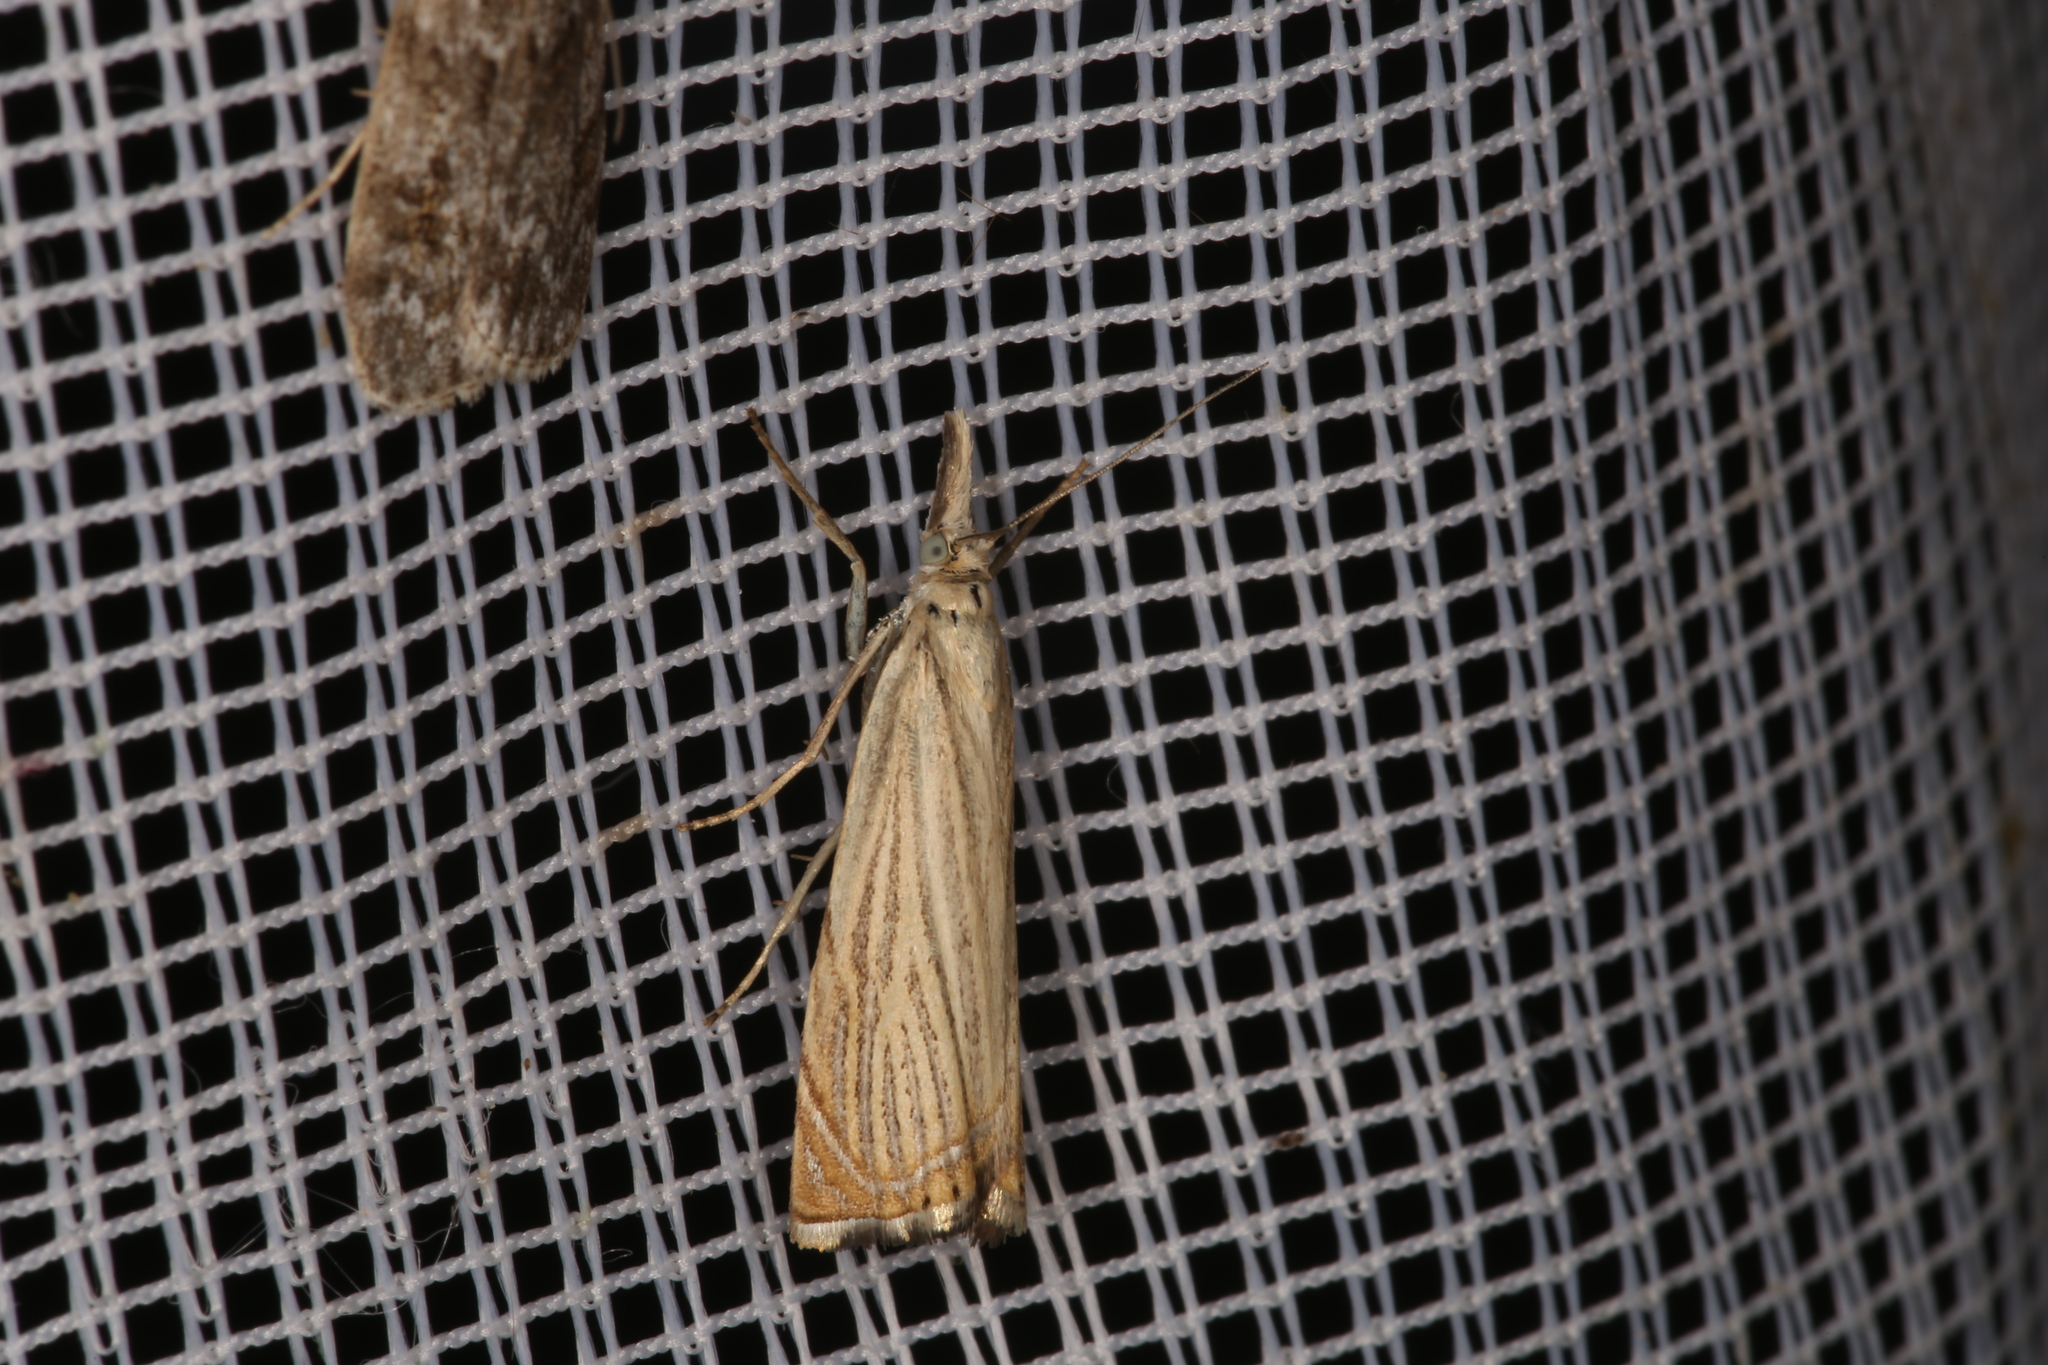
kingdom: Animalia
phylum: Arthropoda
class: Insecta
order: Lepidoptera
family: Crambidae
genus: Chrysoteuchia
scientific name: Chrysoteuchia culmella
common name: Garden grass-veneer
